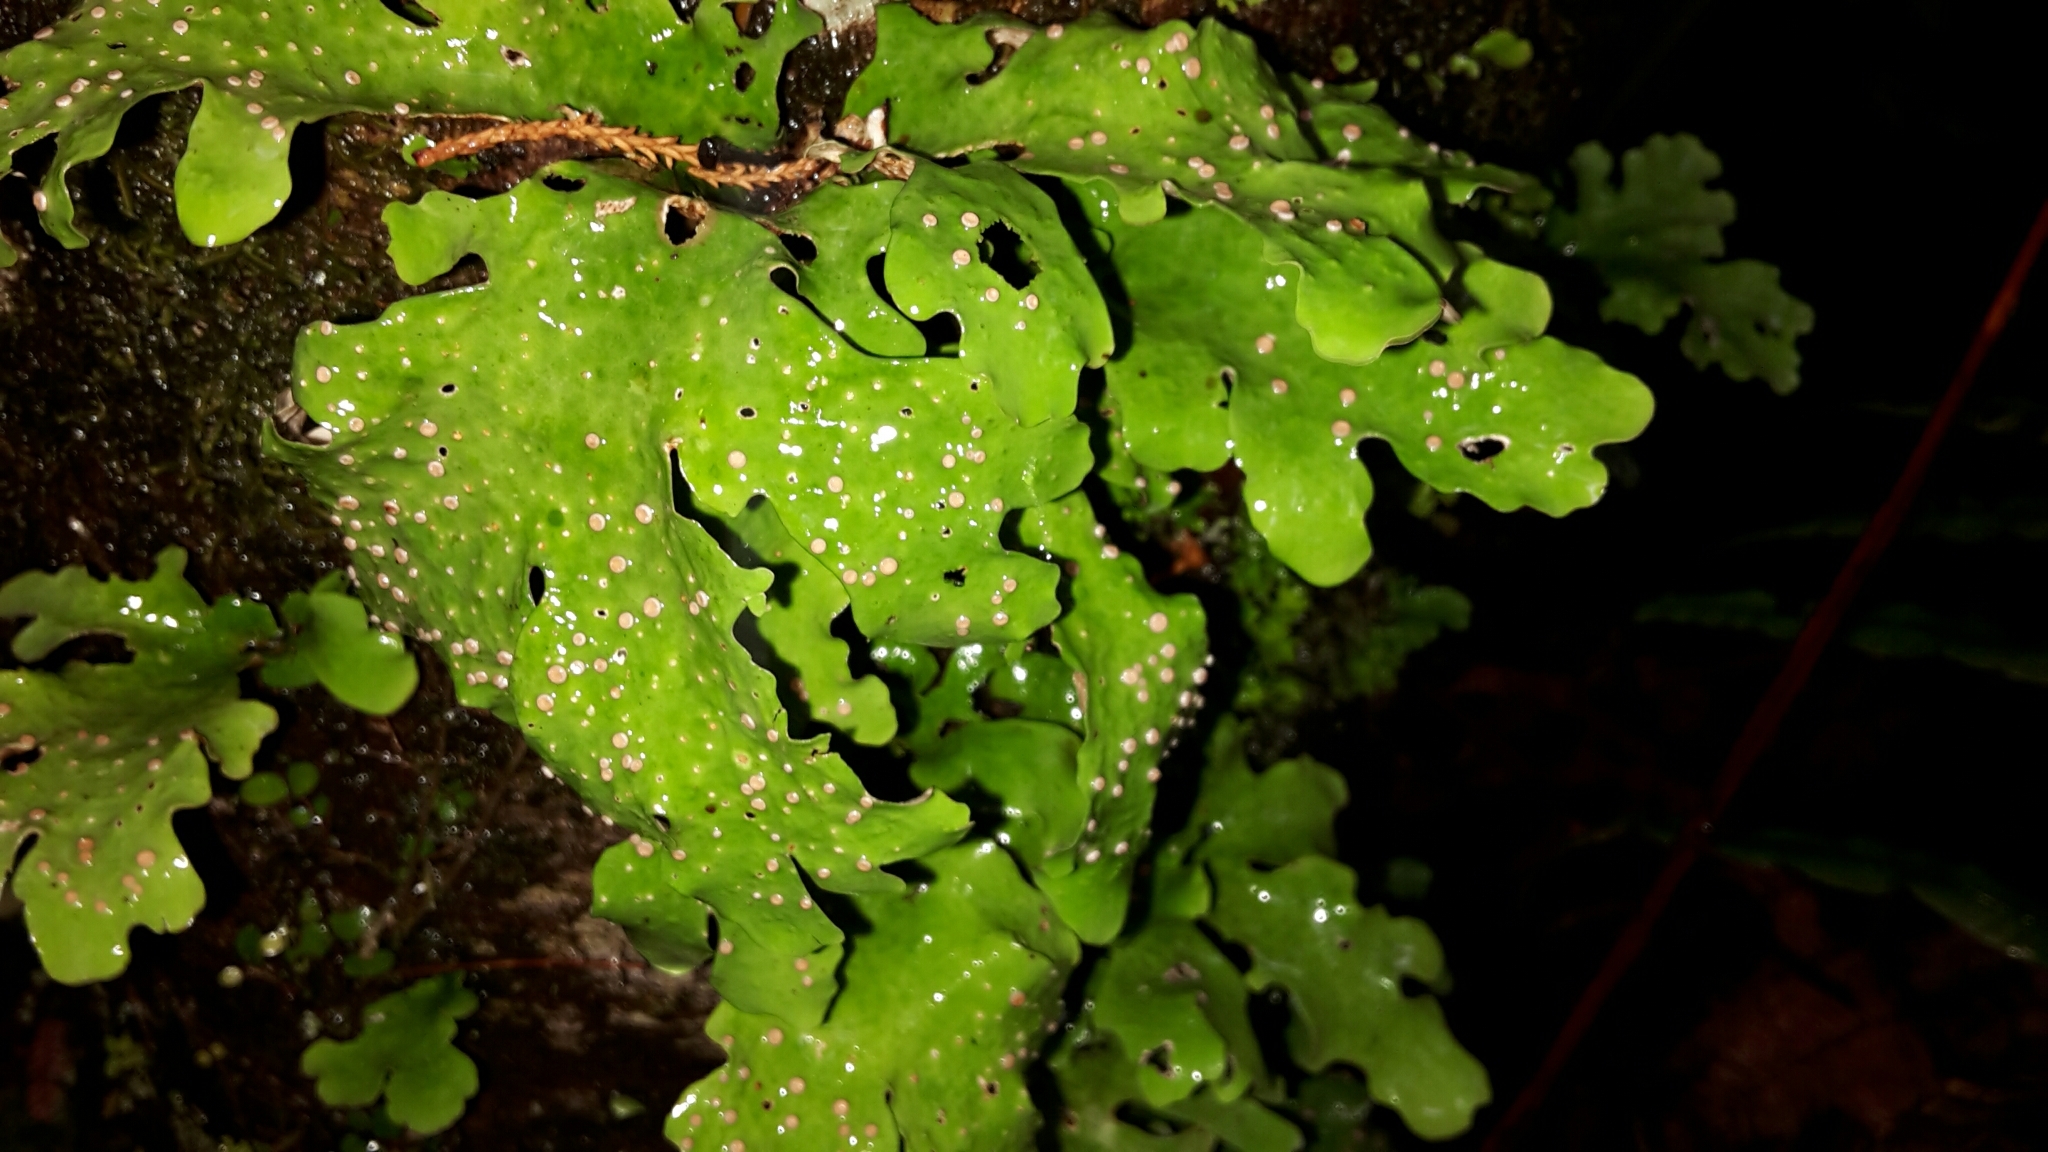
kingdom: Fungi
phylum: Ascomycota
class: Lecanoromycetes
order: Peltigerales
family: Lobariaceae
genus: Sticta
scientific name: Sticta latifrons
